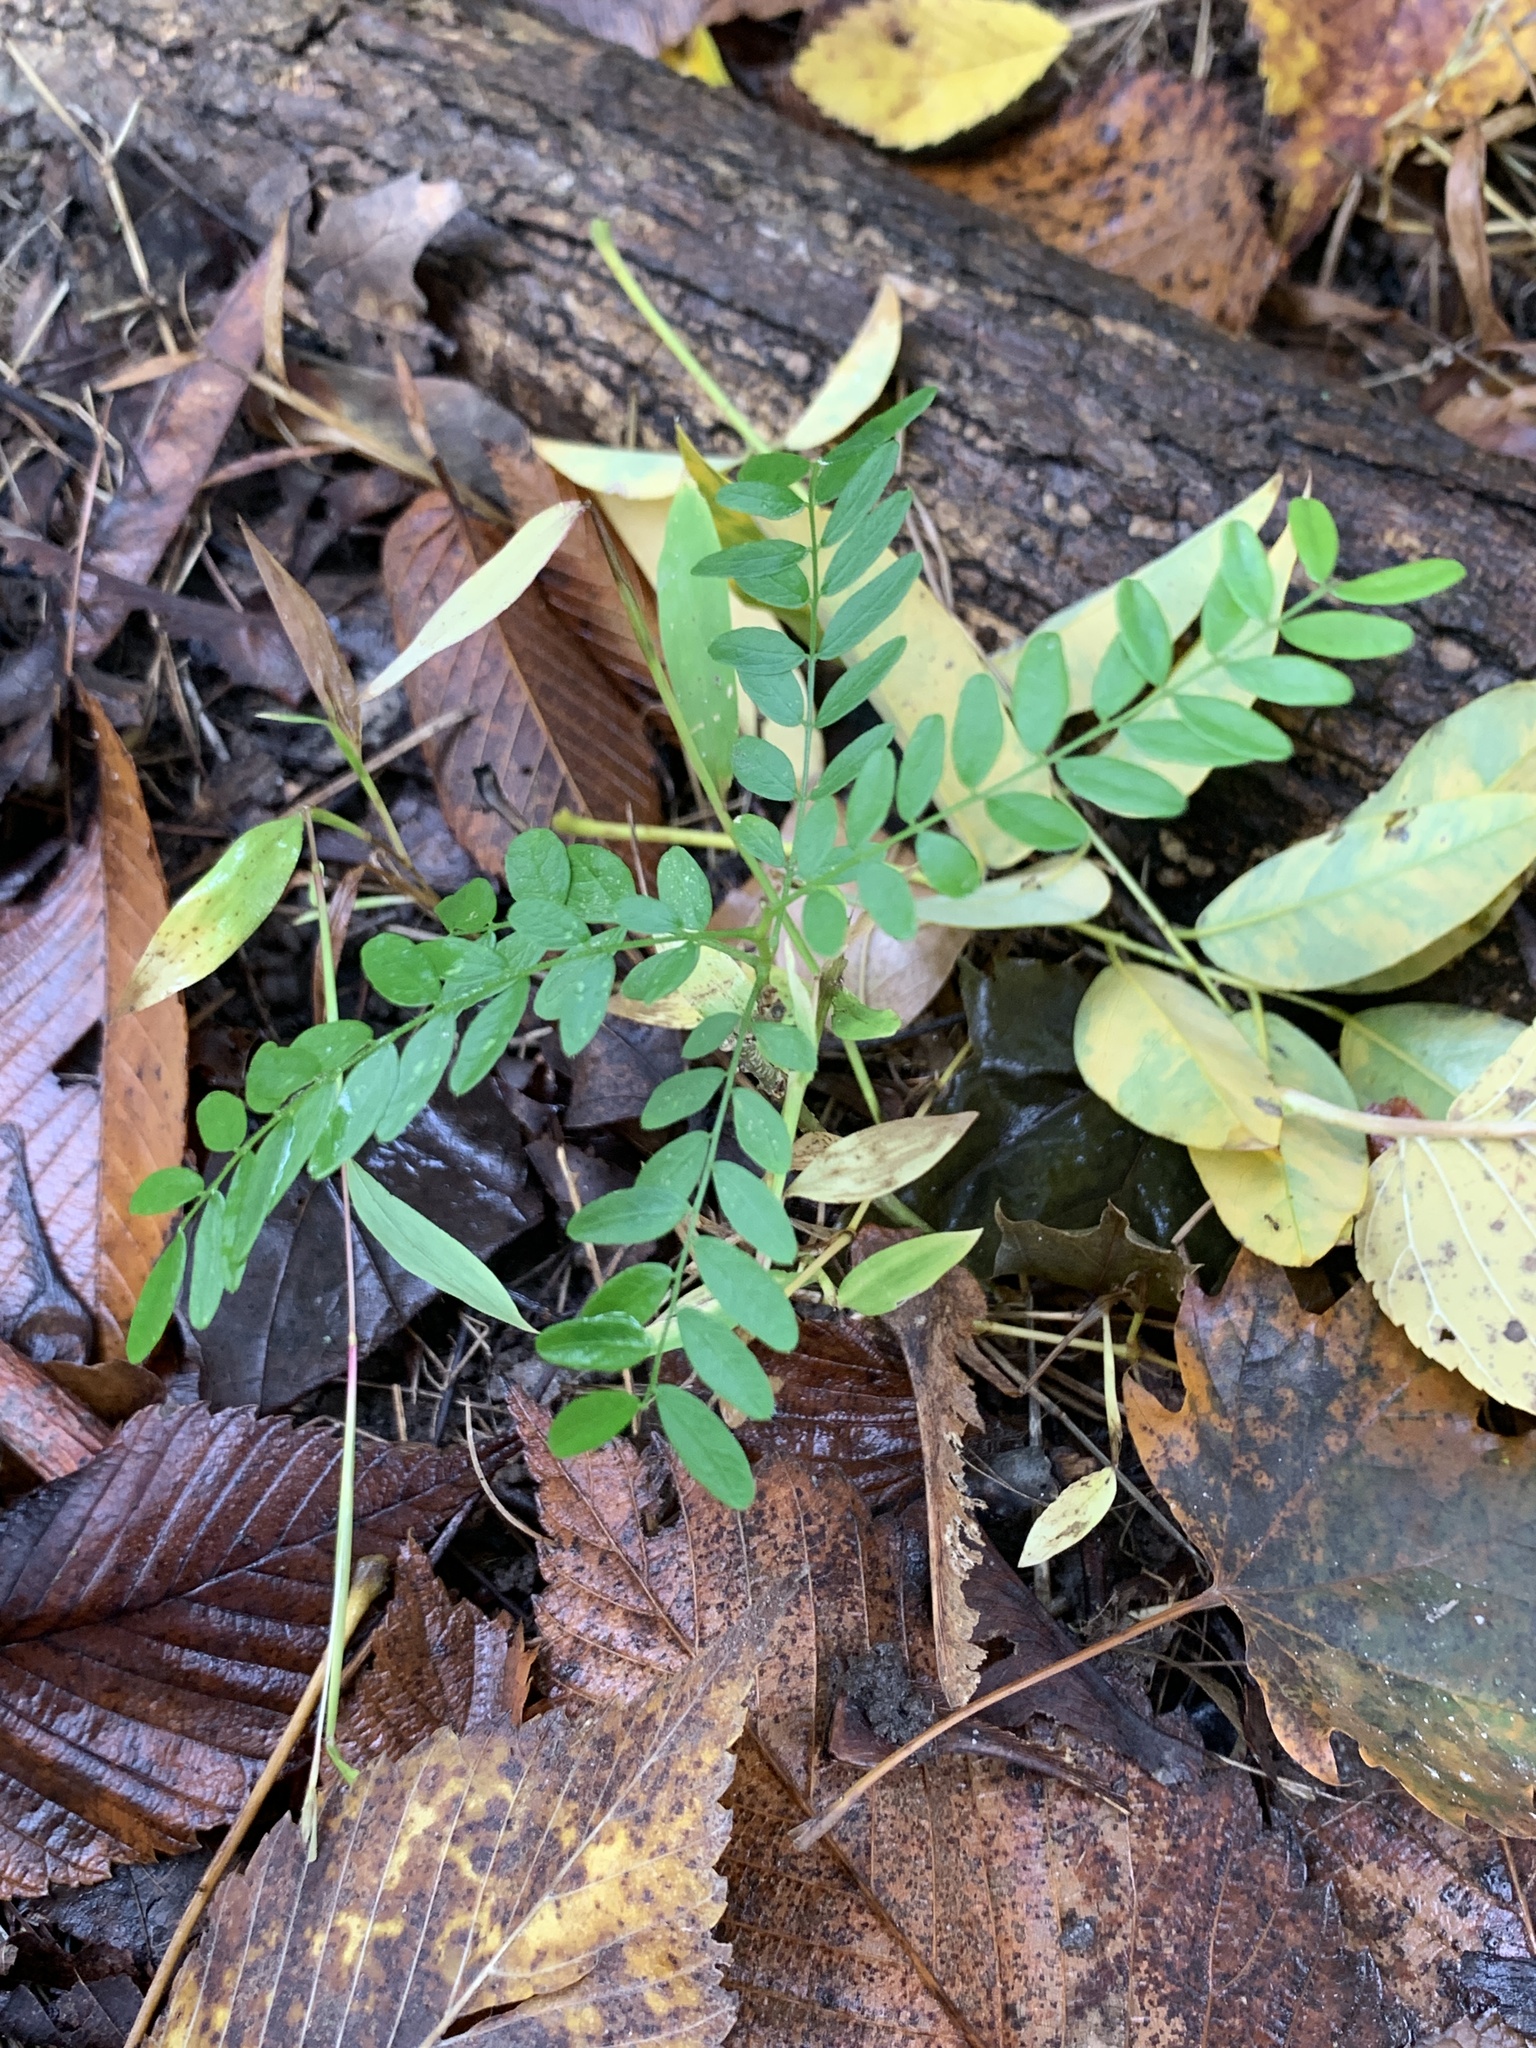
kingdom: Plantae
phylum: Tracheophyta
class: Magnoliopsida
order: Fabales
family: Fabaceae
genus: Styphnolobium
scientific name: Styphnolobium japonicum
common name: Chinese scholartree
